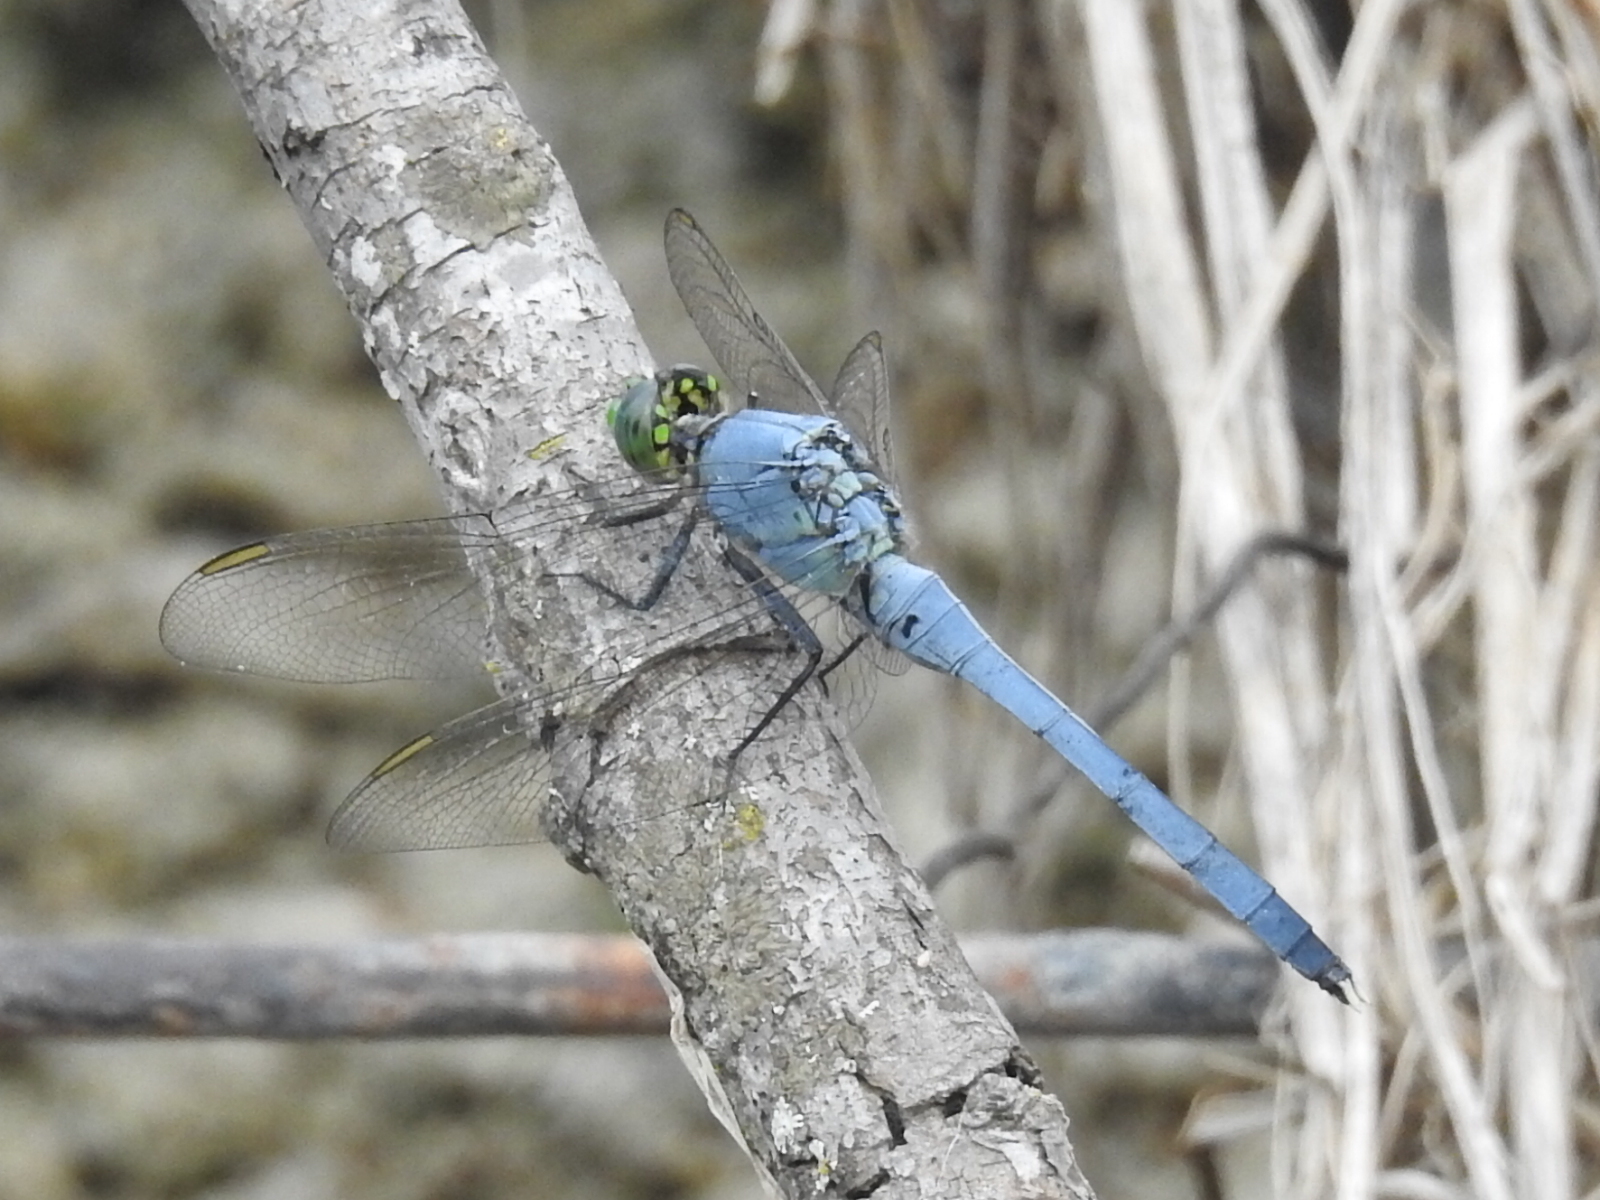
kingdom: Animalia
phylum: Arthropoda
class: Insecta
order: Odonata
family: Libellulidae
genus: Erythemis
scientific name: Erythemis simplicicollis
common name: Eastern pondhawk
